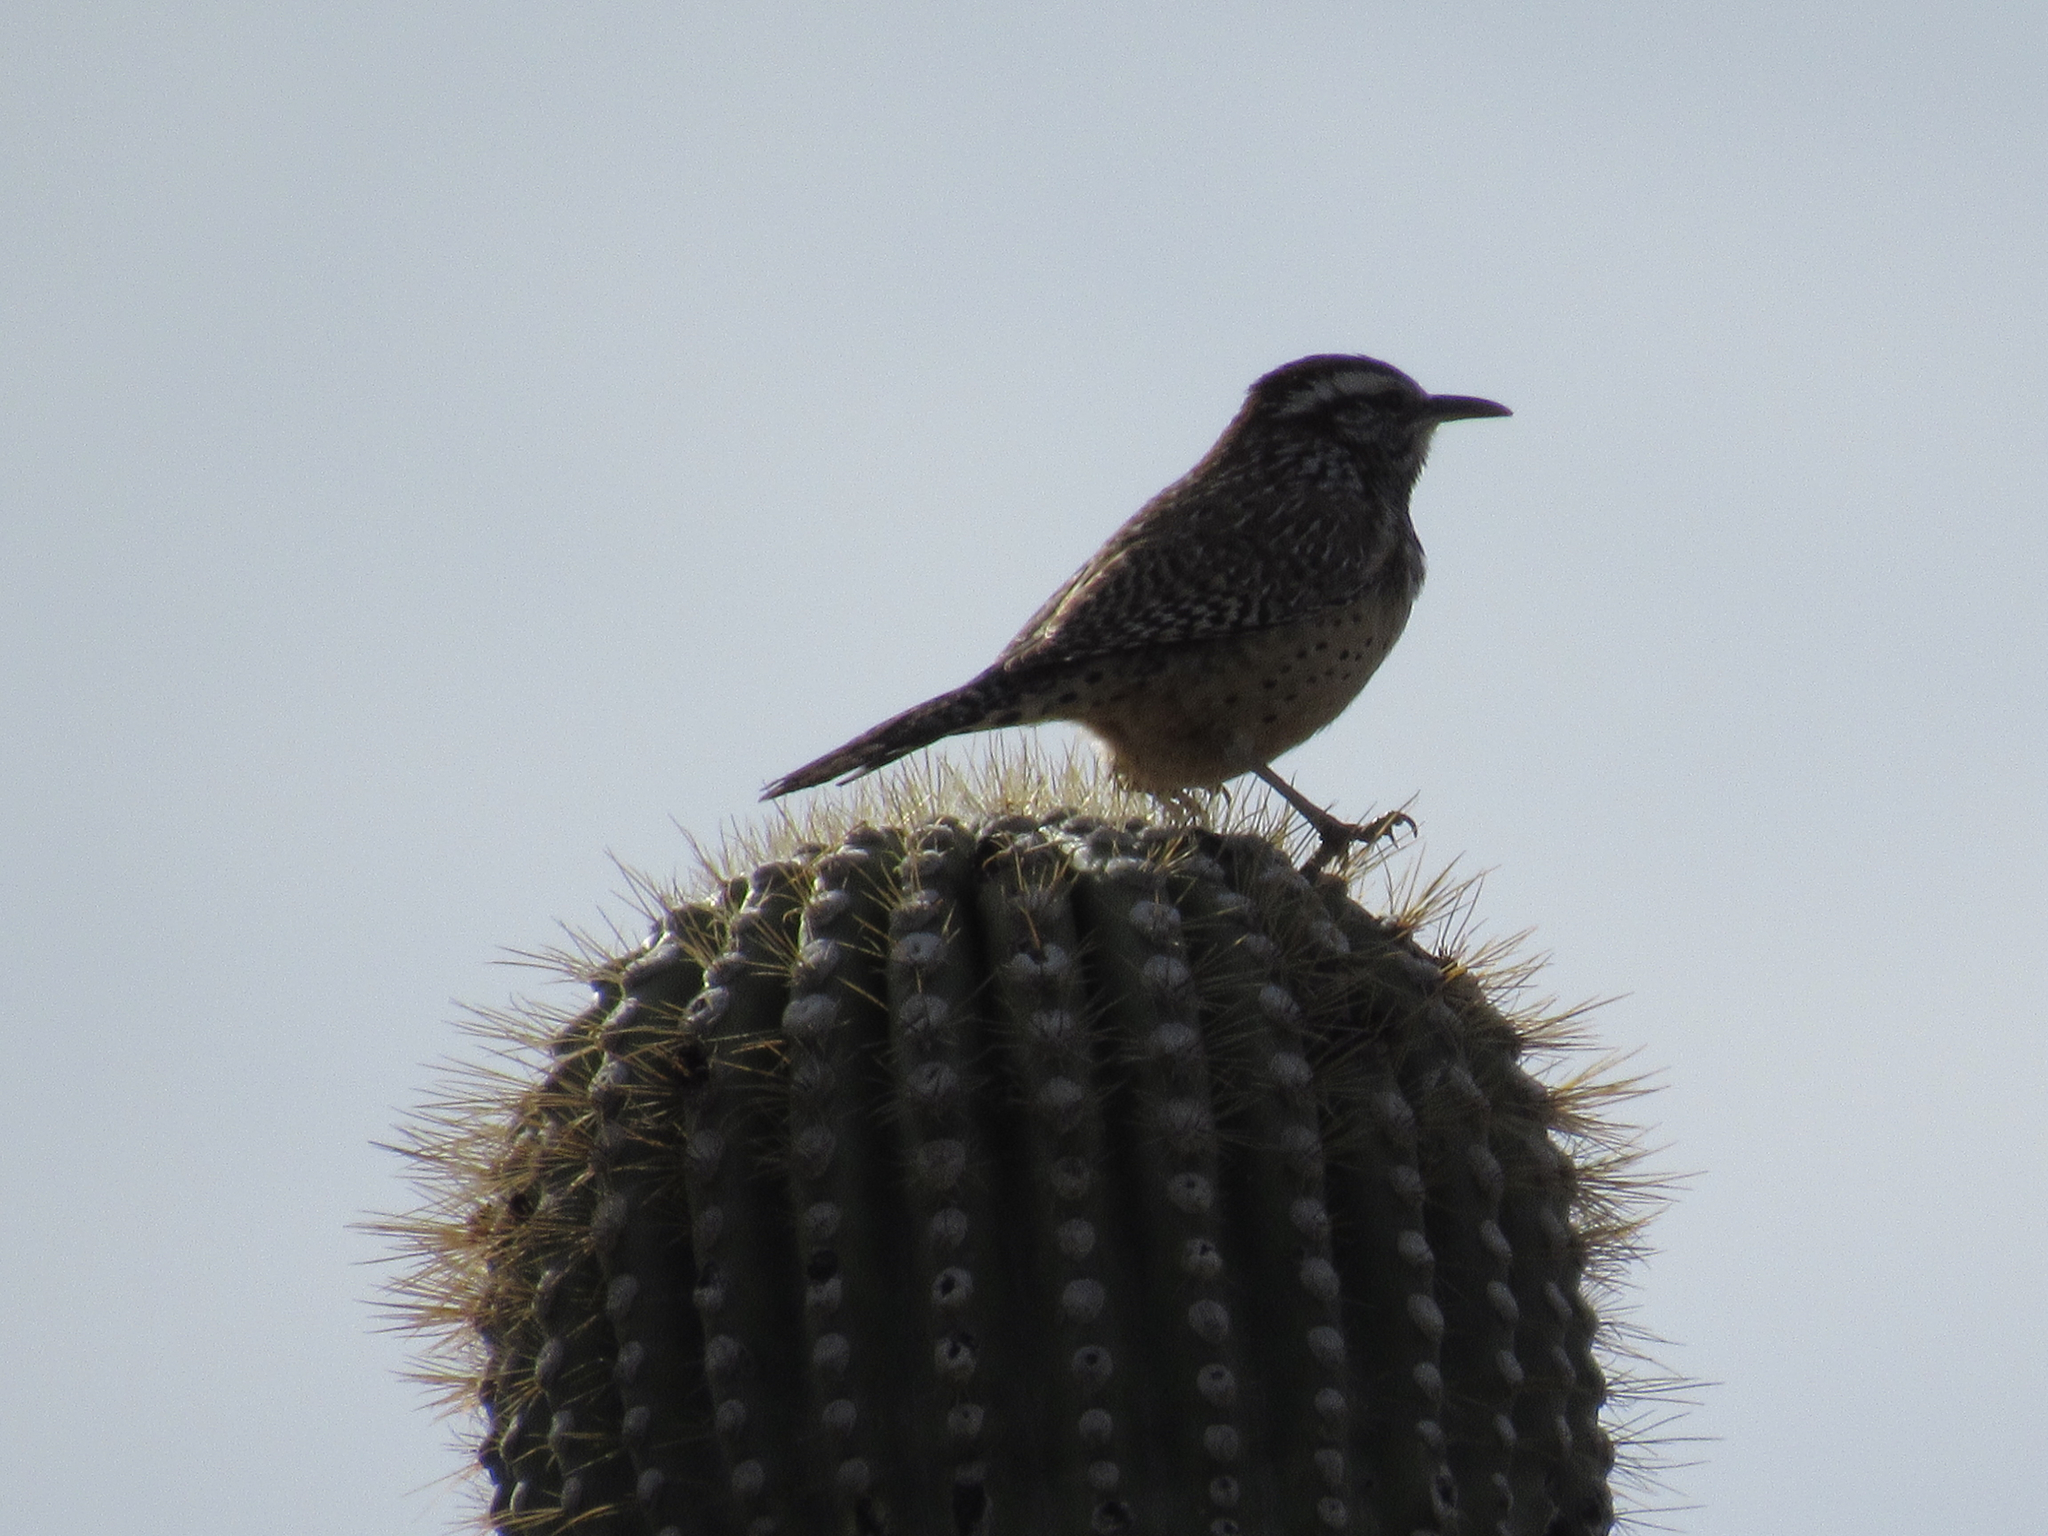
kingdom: Animalia
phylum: Chordata
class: Aves
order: Passeriformes
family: Troglodytidae
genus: Campylorhynchus
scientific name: Campylorhynchus brunneicapillus
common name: Cactus wren
